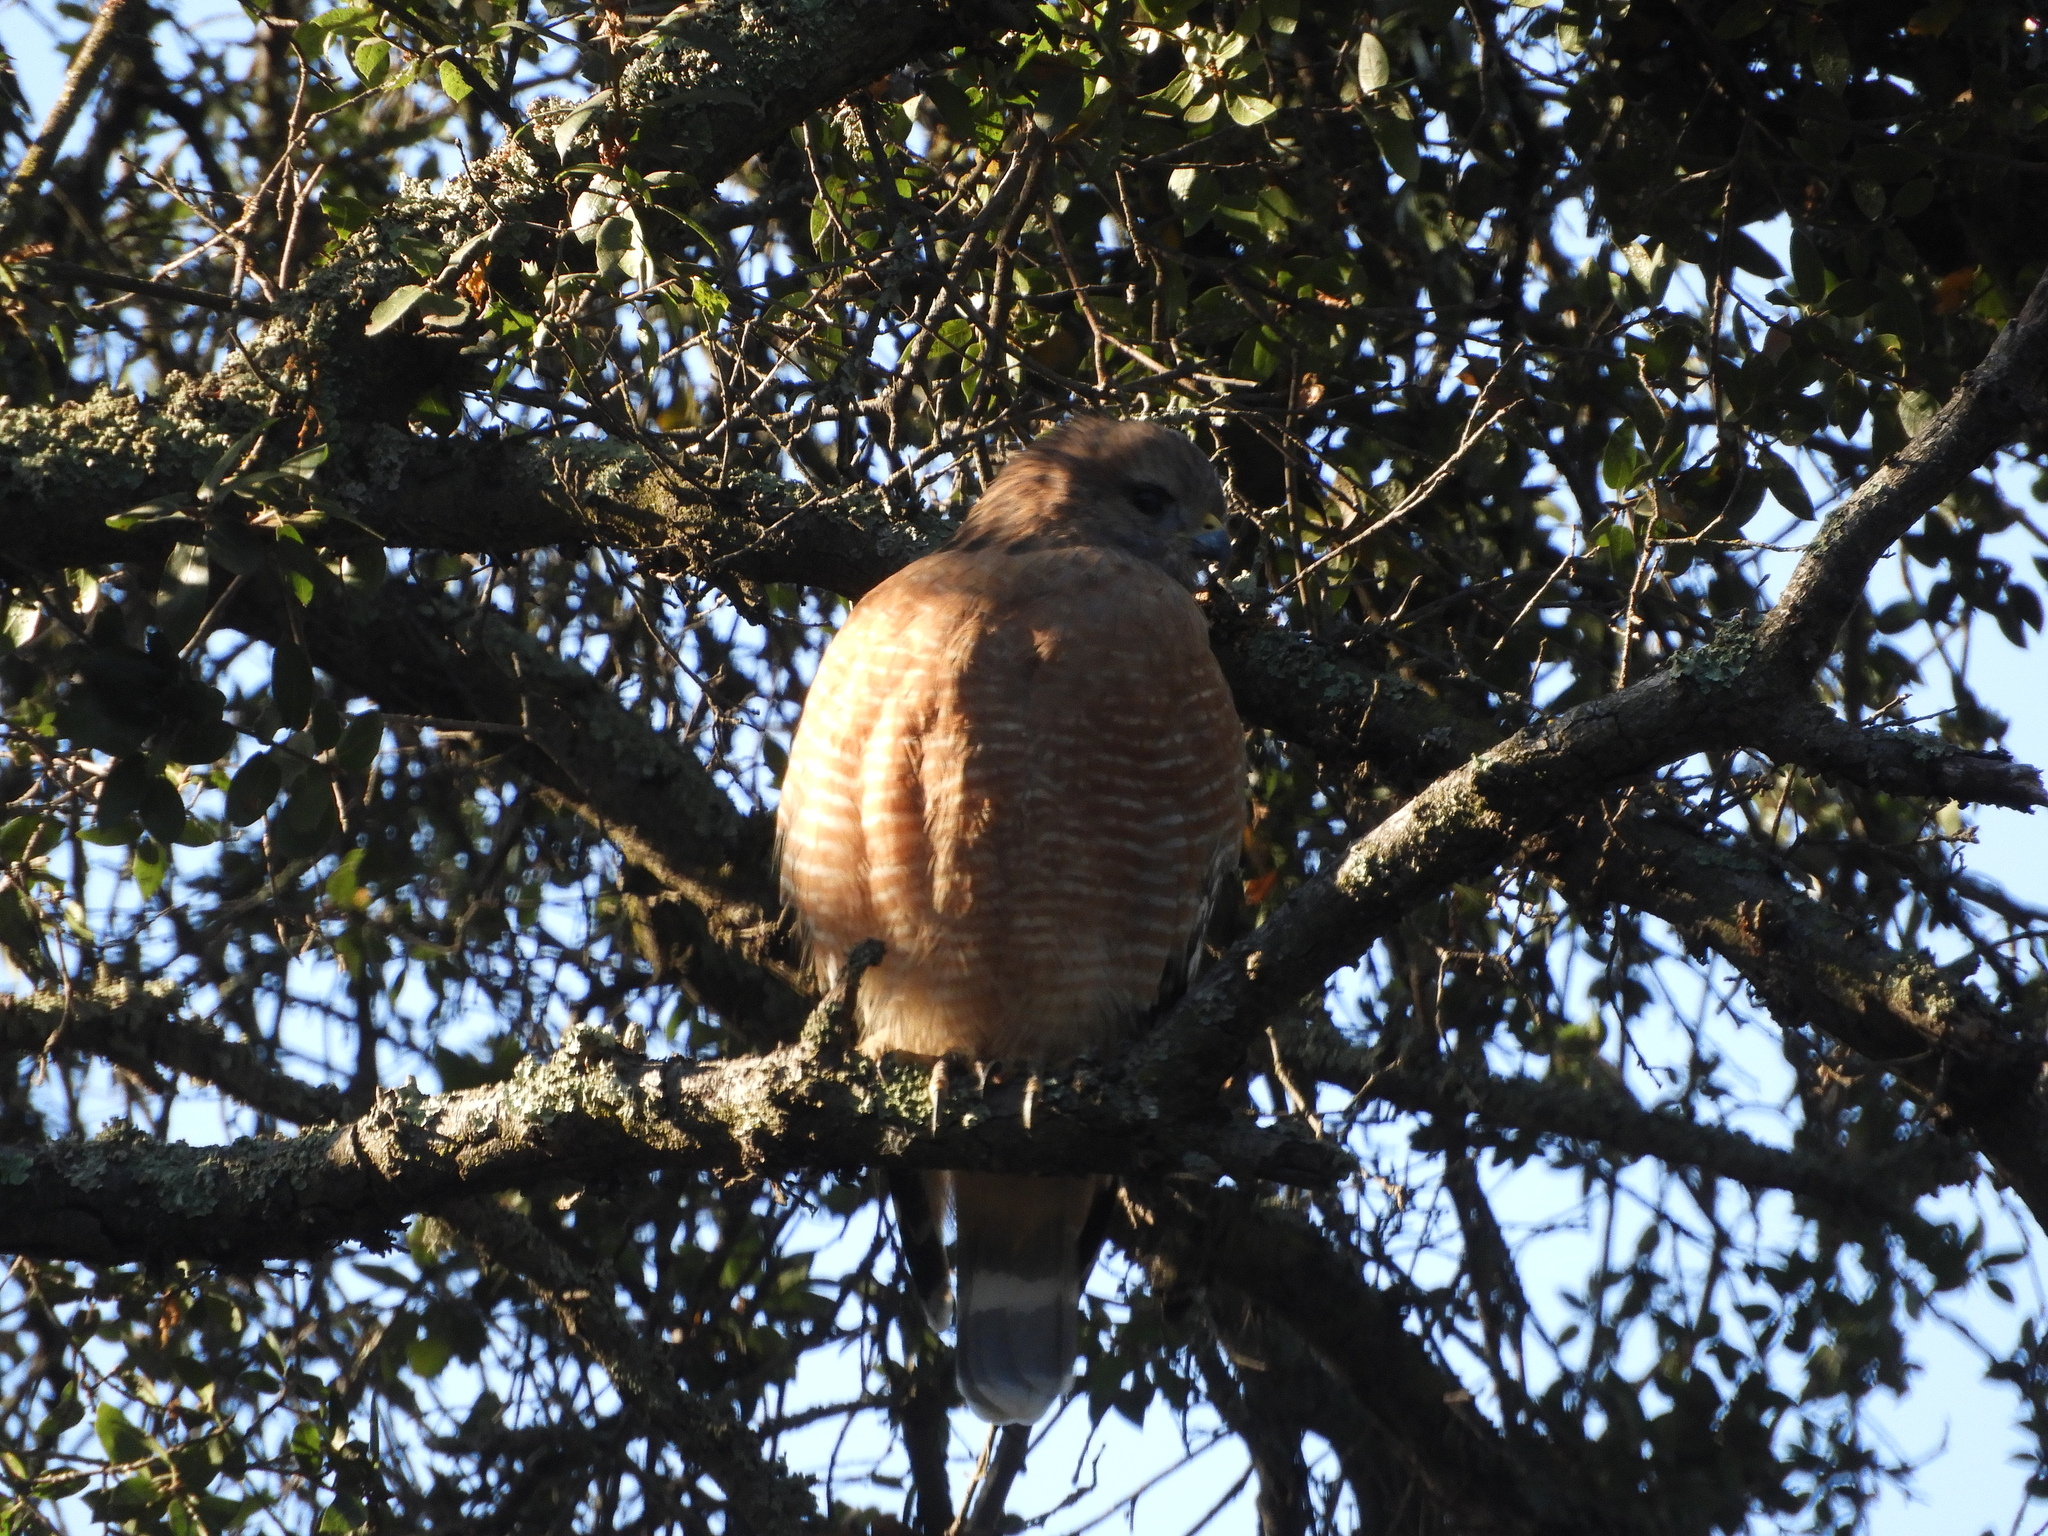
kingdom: Animalia
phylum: Chordata
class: Aves
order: Accipitriformes
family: Accipitridae
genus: Buteo
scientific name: Buteo lineatus
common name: Red-shouldered hawk
